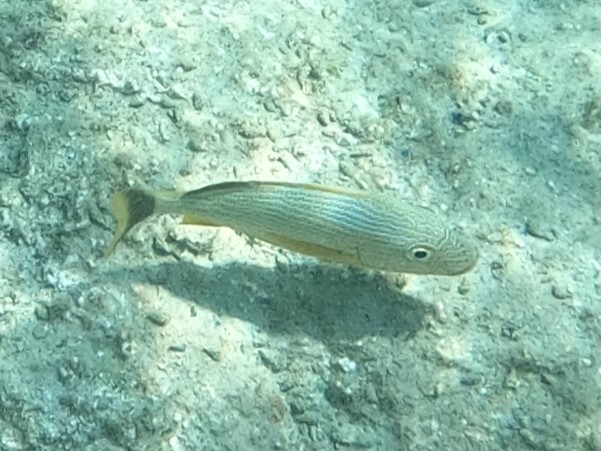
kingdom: Animalia
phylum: Chordata
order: Perciformes
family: Haemulidae
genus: Haemulon
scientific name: Haemulon sciurus
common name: Bluestriped grunt
